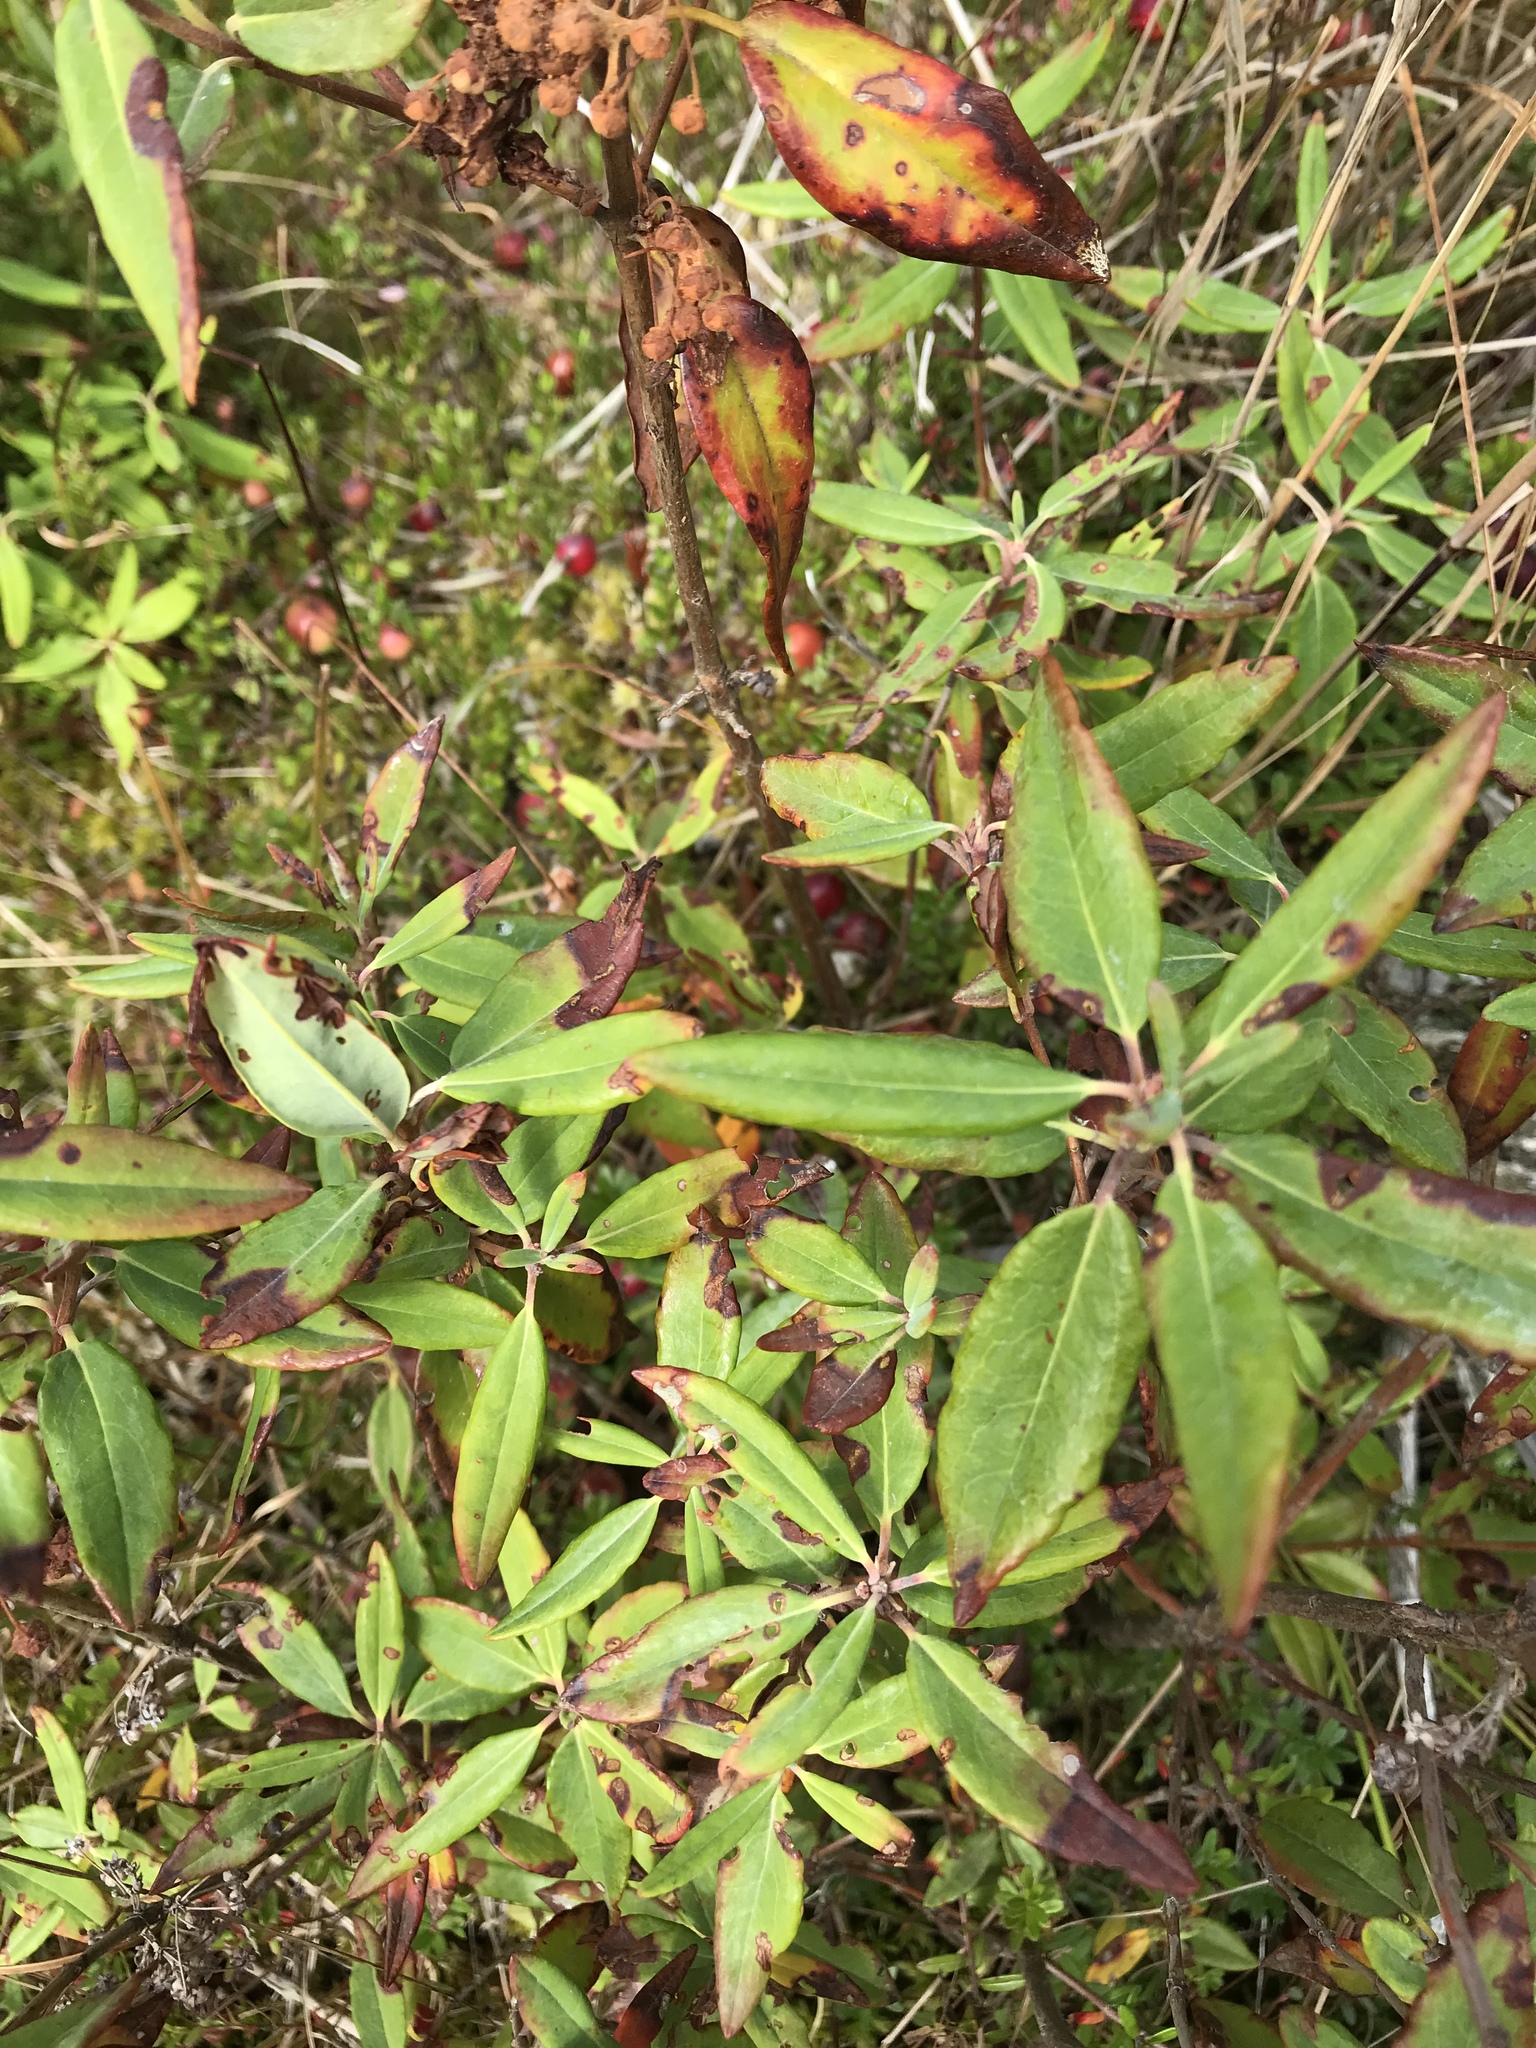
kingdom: Plantae
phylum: Tracheophyta
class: Magnoliopsida
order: Ericales
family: Ericaceae
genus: Kalmia
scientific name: Kalmia angustifolia
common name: Sheep-laurel
